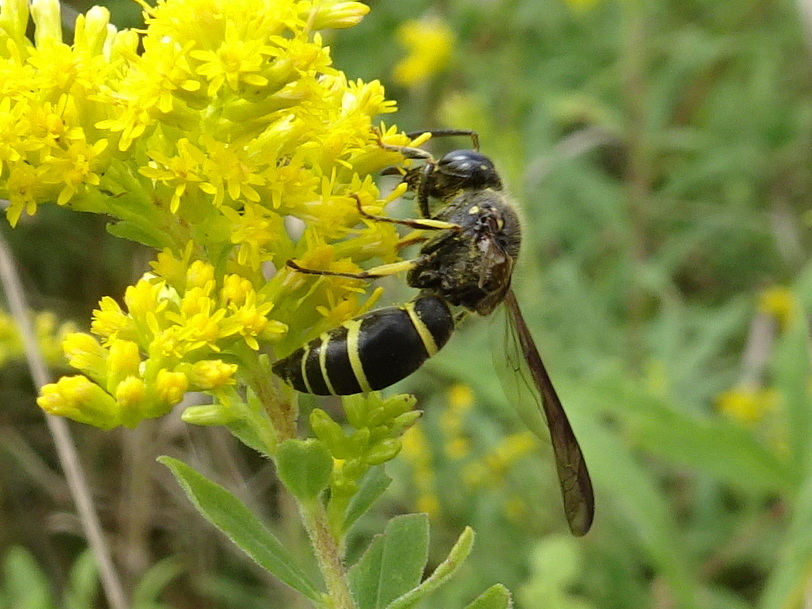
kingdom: Animalia
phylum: Arthropoda
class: Insecta
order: Hymenoptera
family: Vespidae
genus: Ancistrocerus
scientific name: Ancistrocerus
